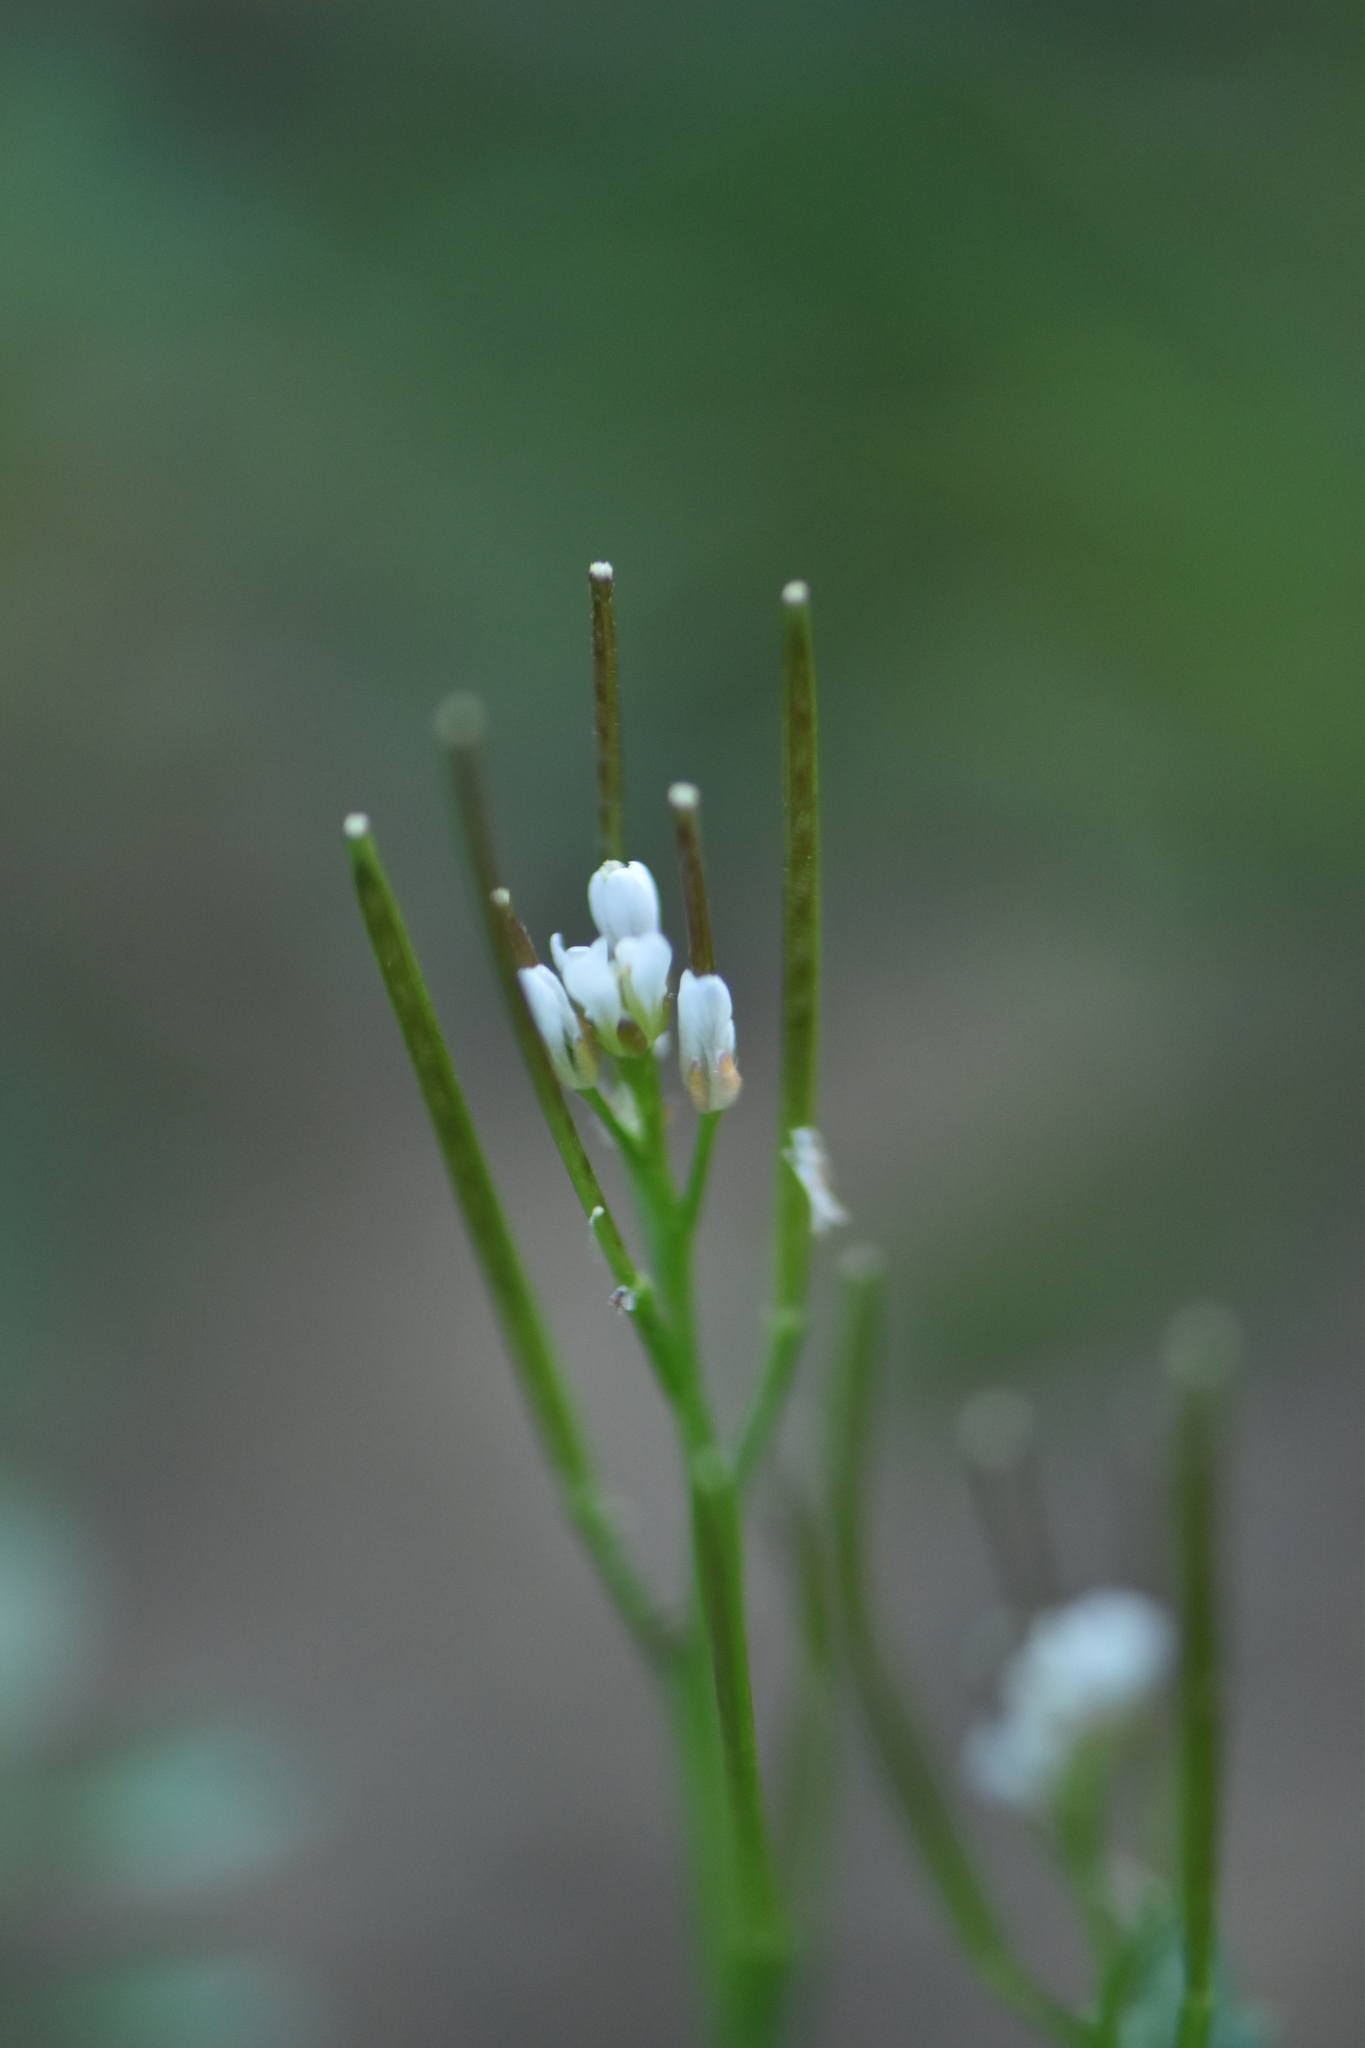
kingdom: Plantae
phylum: Tracheophyta
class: Magnoliopsida
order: Brassicales
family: Brassicaceae
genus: Cardamine
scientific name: Cardamine hirsuta
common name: Hairy bittercress
